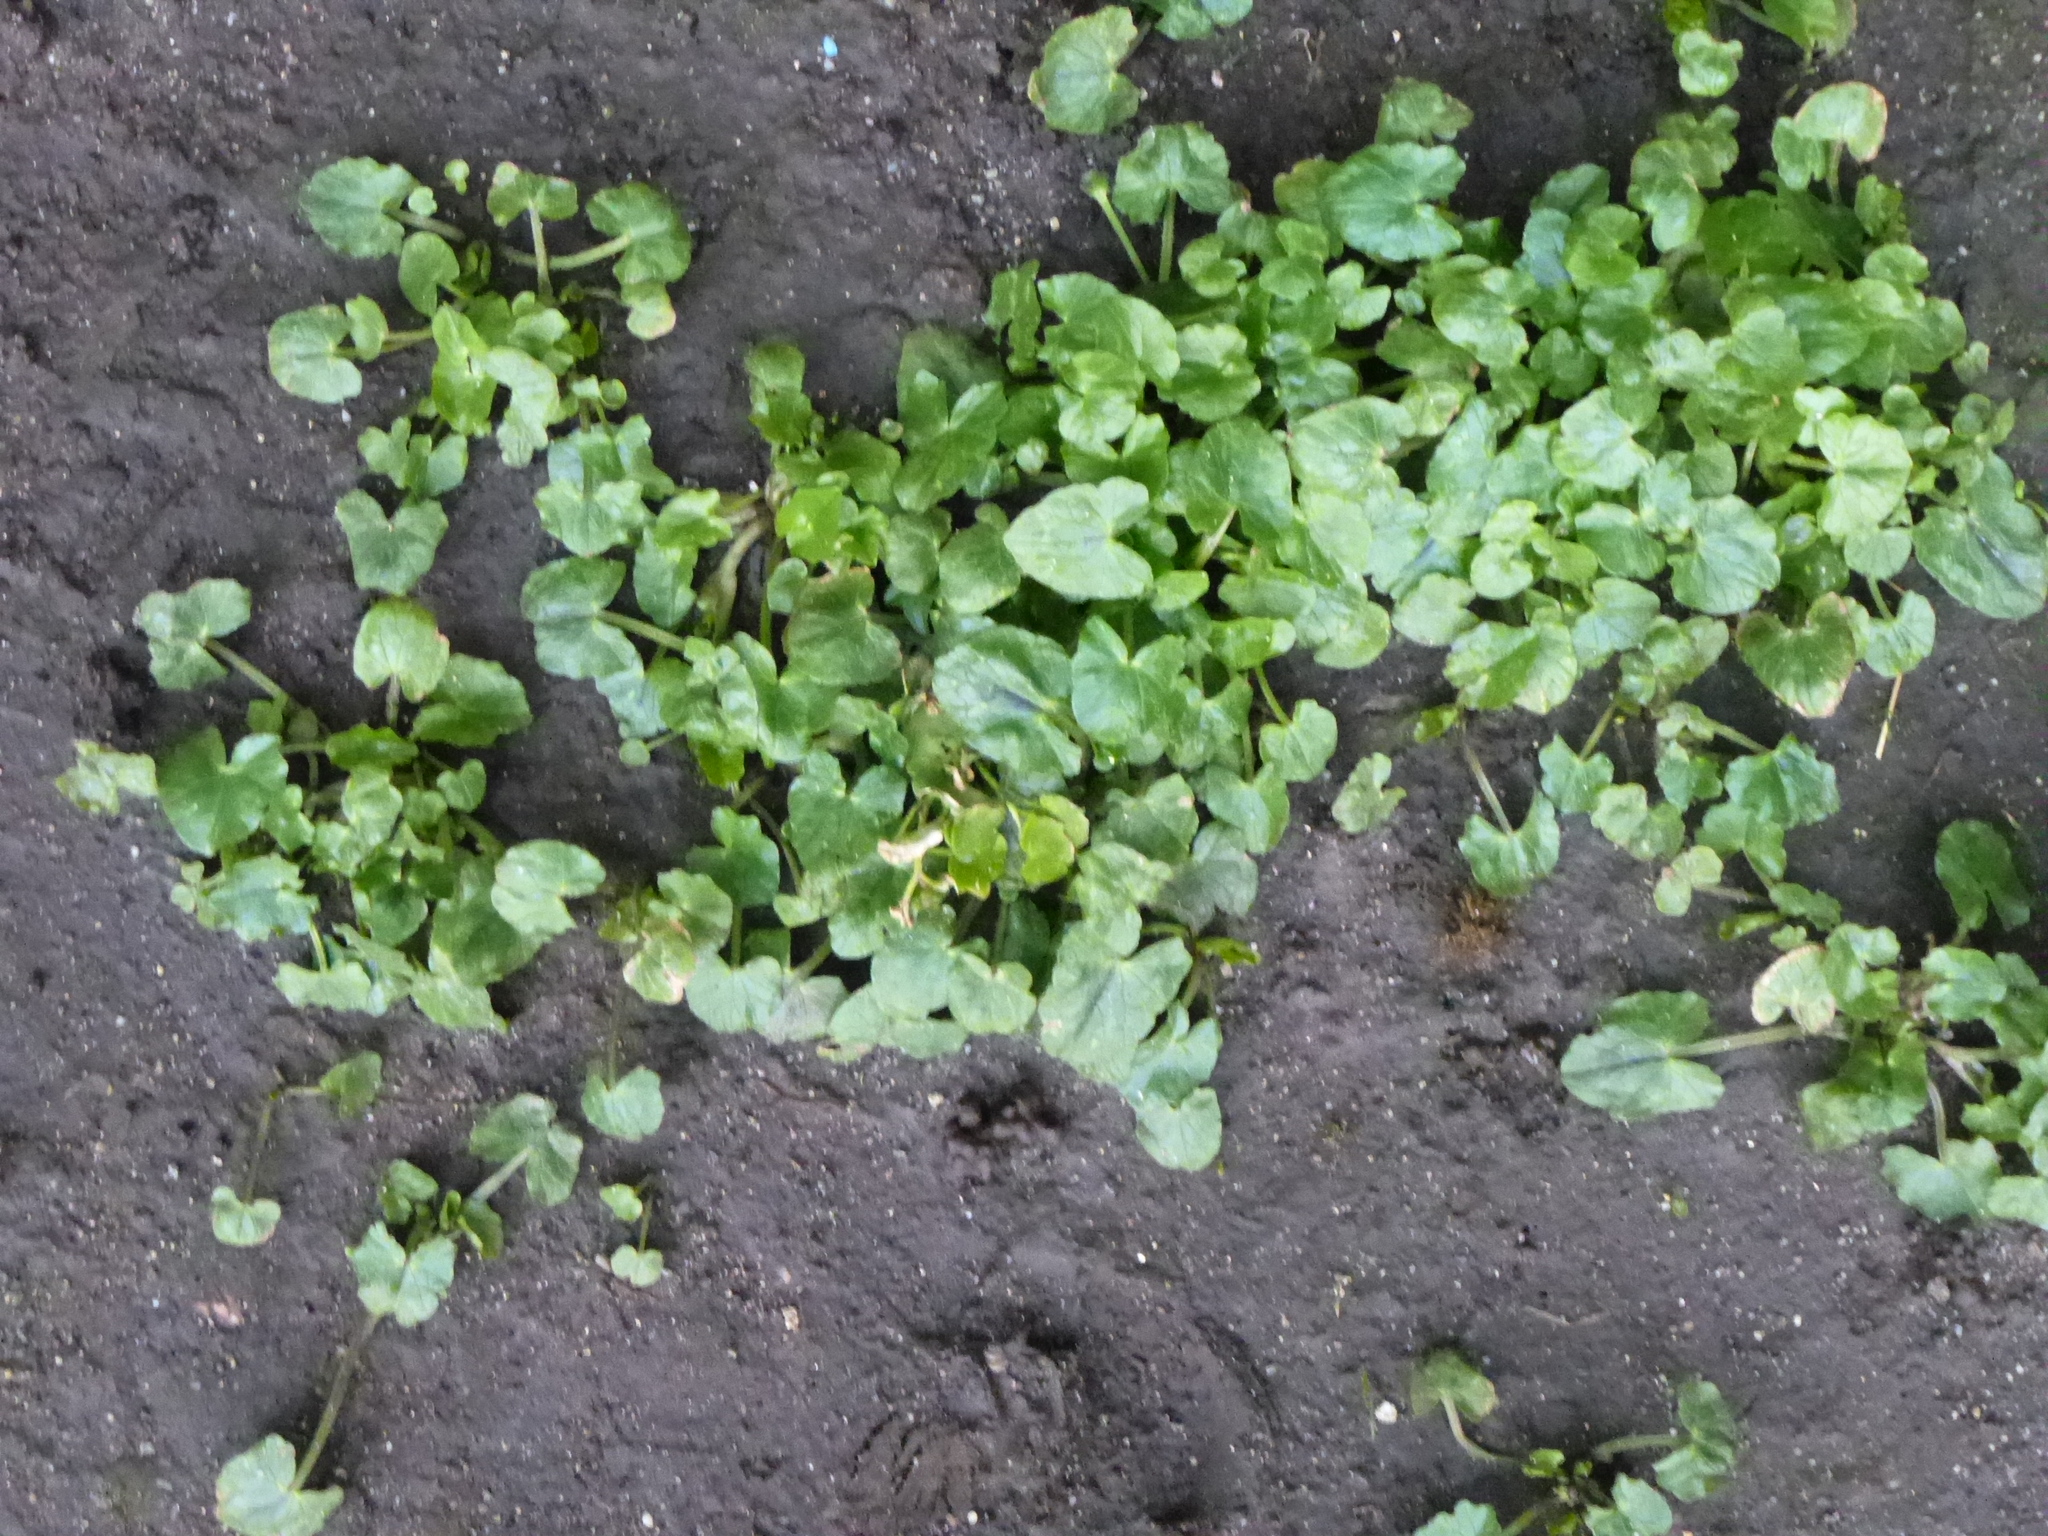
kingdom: Plantae
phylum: Tracheophyta
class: Magnoliopsida
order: Ranunculales
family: Ranunculaceae
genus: Ficaria
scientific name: Ficaria verna
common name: Lesser celandine
